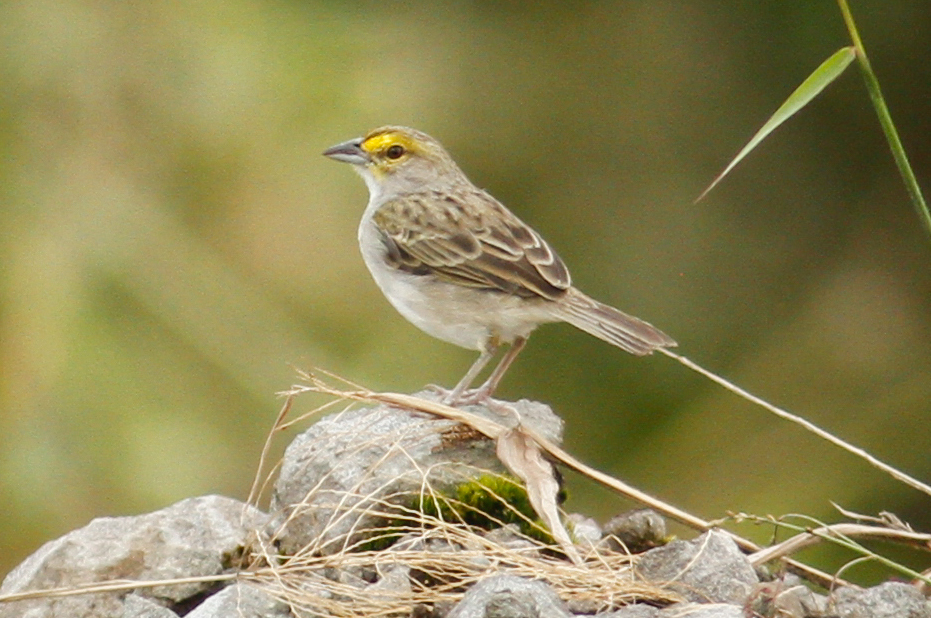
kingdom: Animalia
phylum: Chordata
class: Aves
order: Passeriformes
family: Passerellidae
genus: Ammodramus
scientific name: Ammodramus aurifrons
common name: Yellow-browed sparrow
